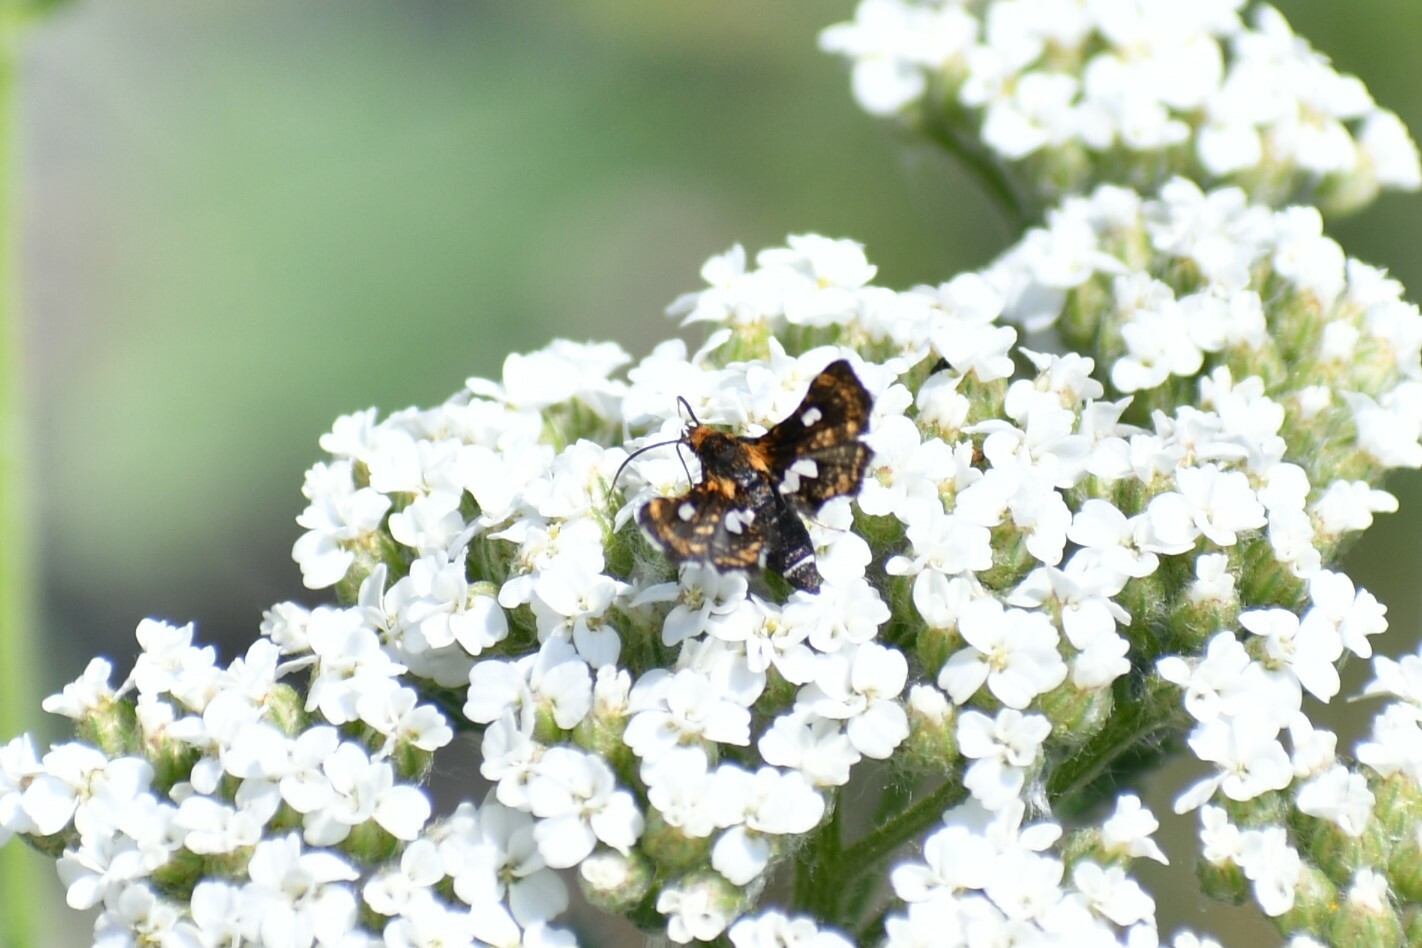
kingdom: Animalia
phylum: Arthropoda
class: Insecta
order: Lepidoptera
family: Thyrididae
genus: Thyris
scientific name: Thyris maculata
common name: Spotted thyris moth
